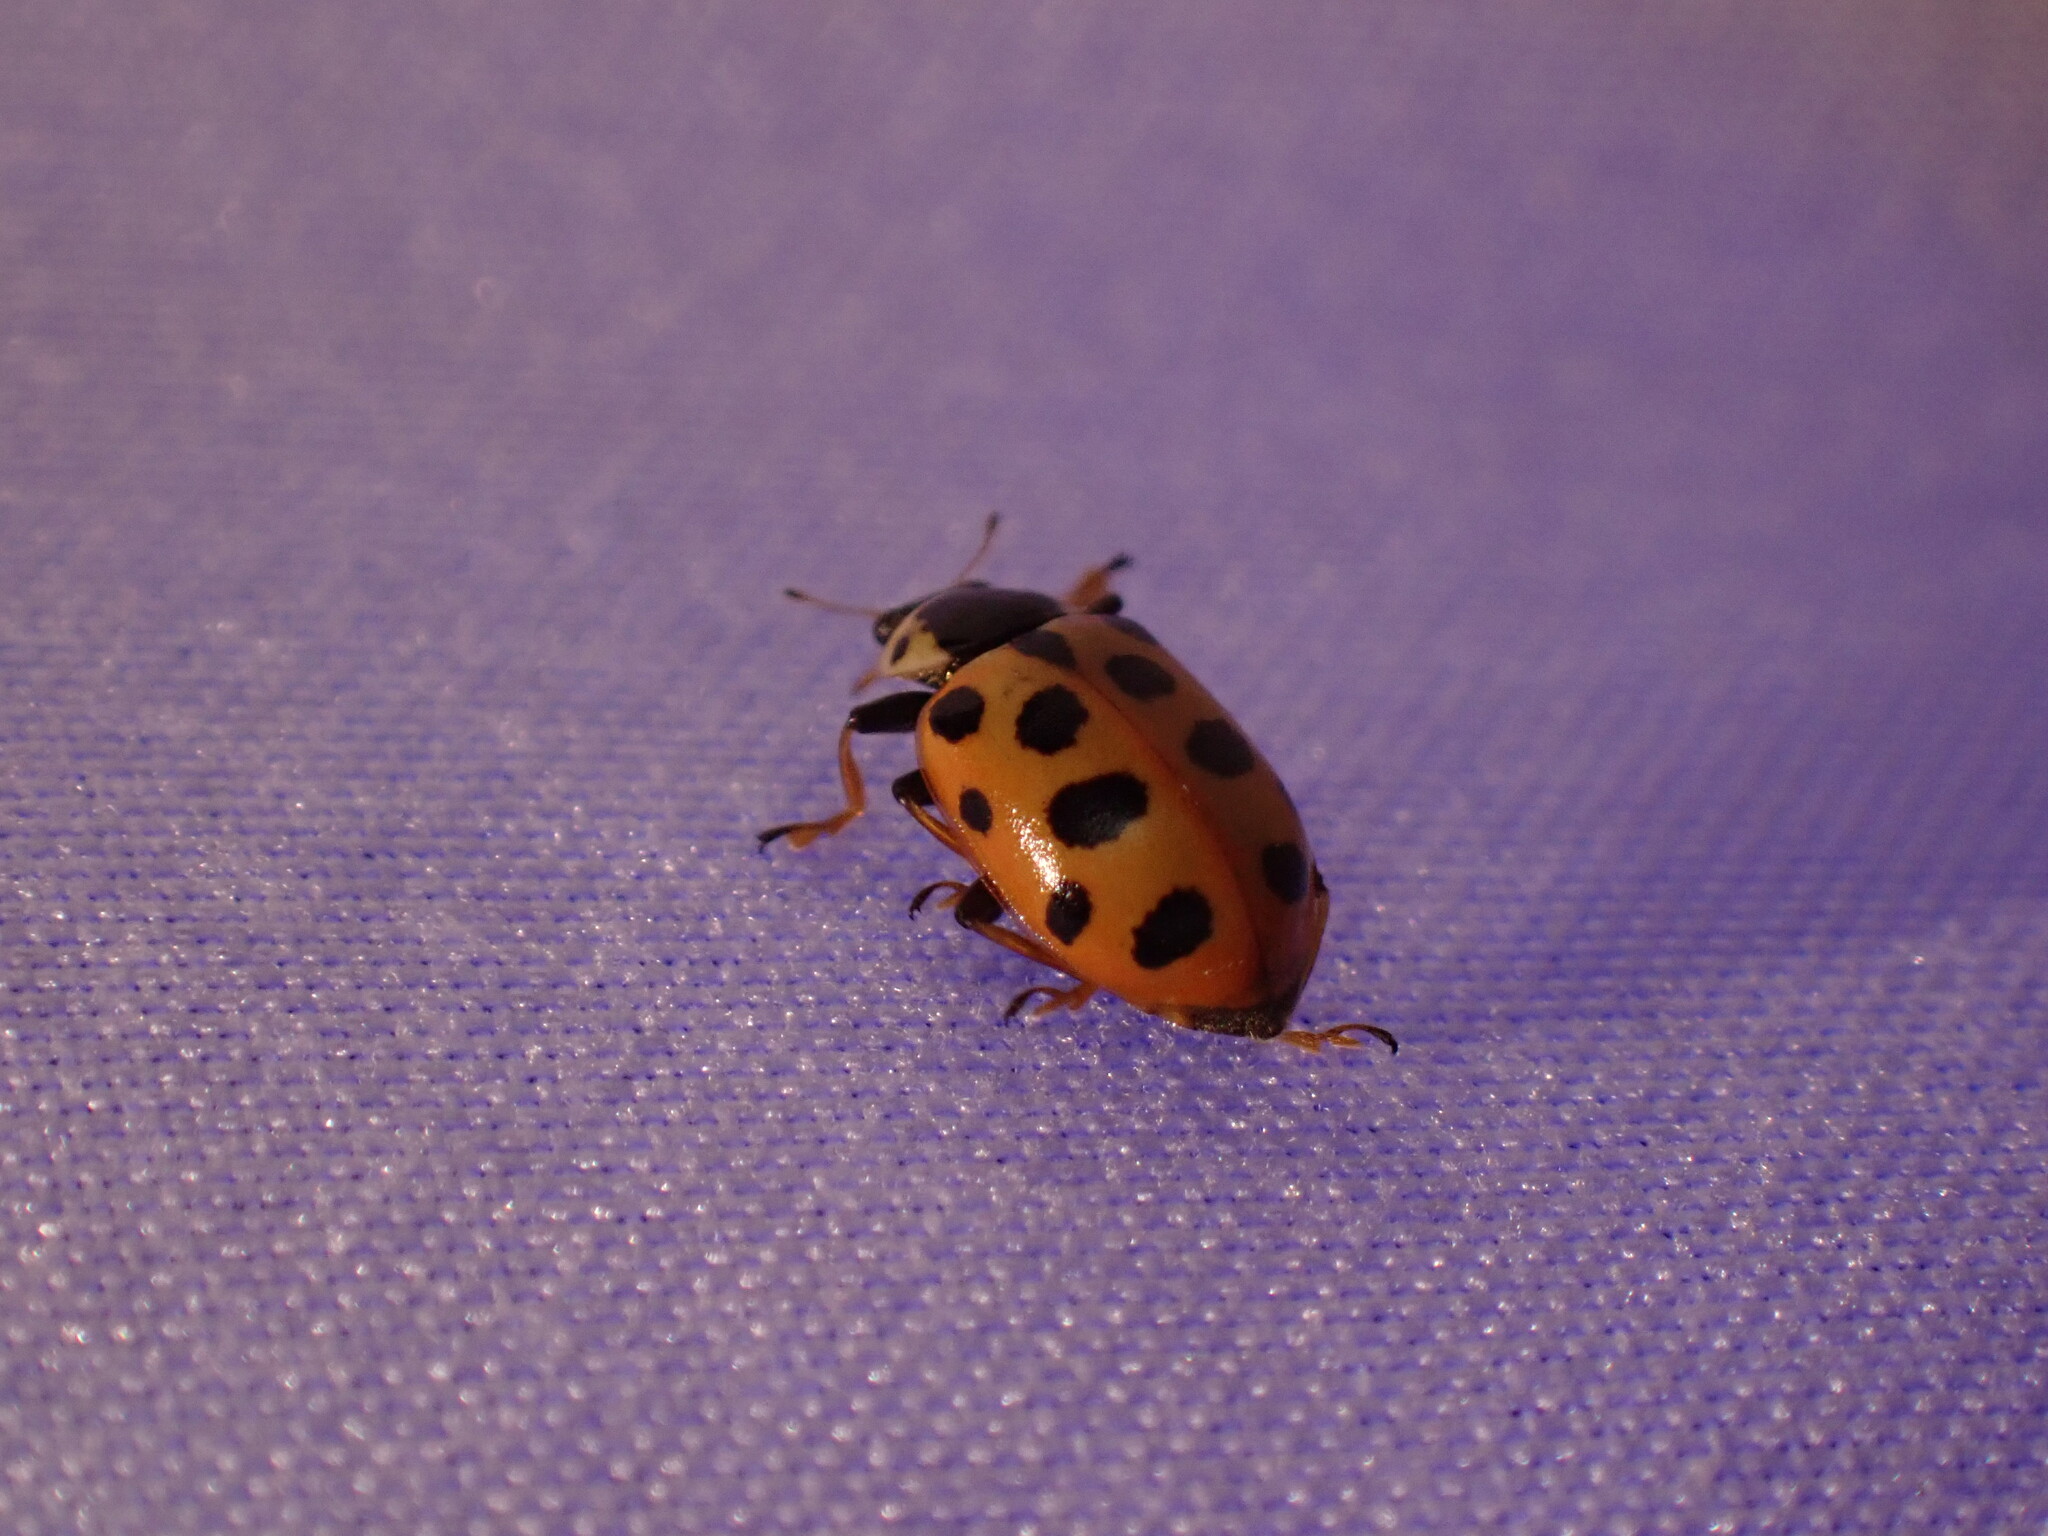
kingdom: Animalia
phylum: Arthropoda
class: Insecta
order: Coleoptera
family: Coccinellidae
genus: Hippodamia
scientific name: Hippodamia tredecimpunctata
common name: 13-spot ladybird
